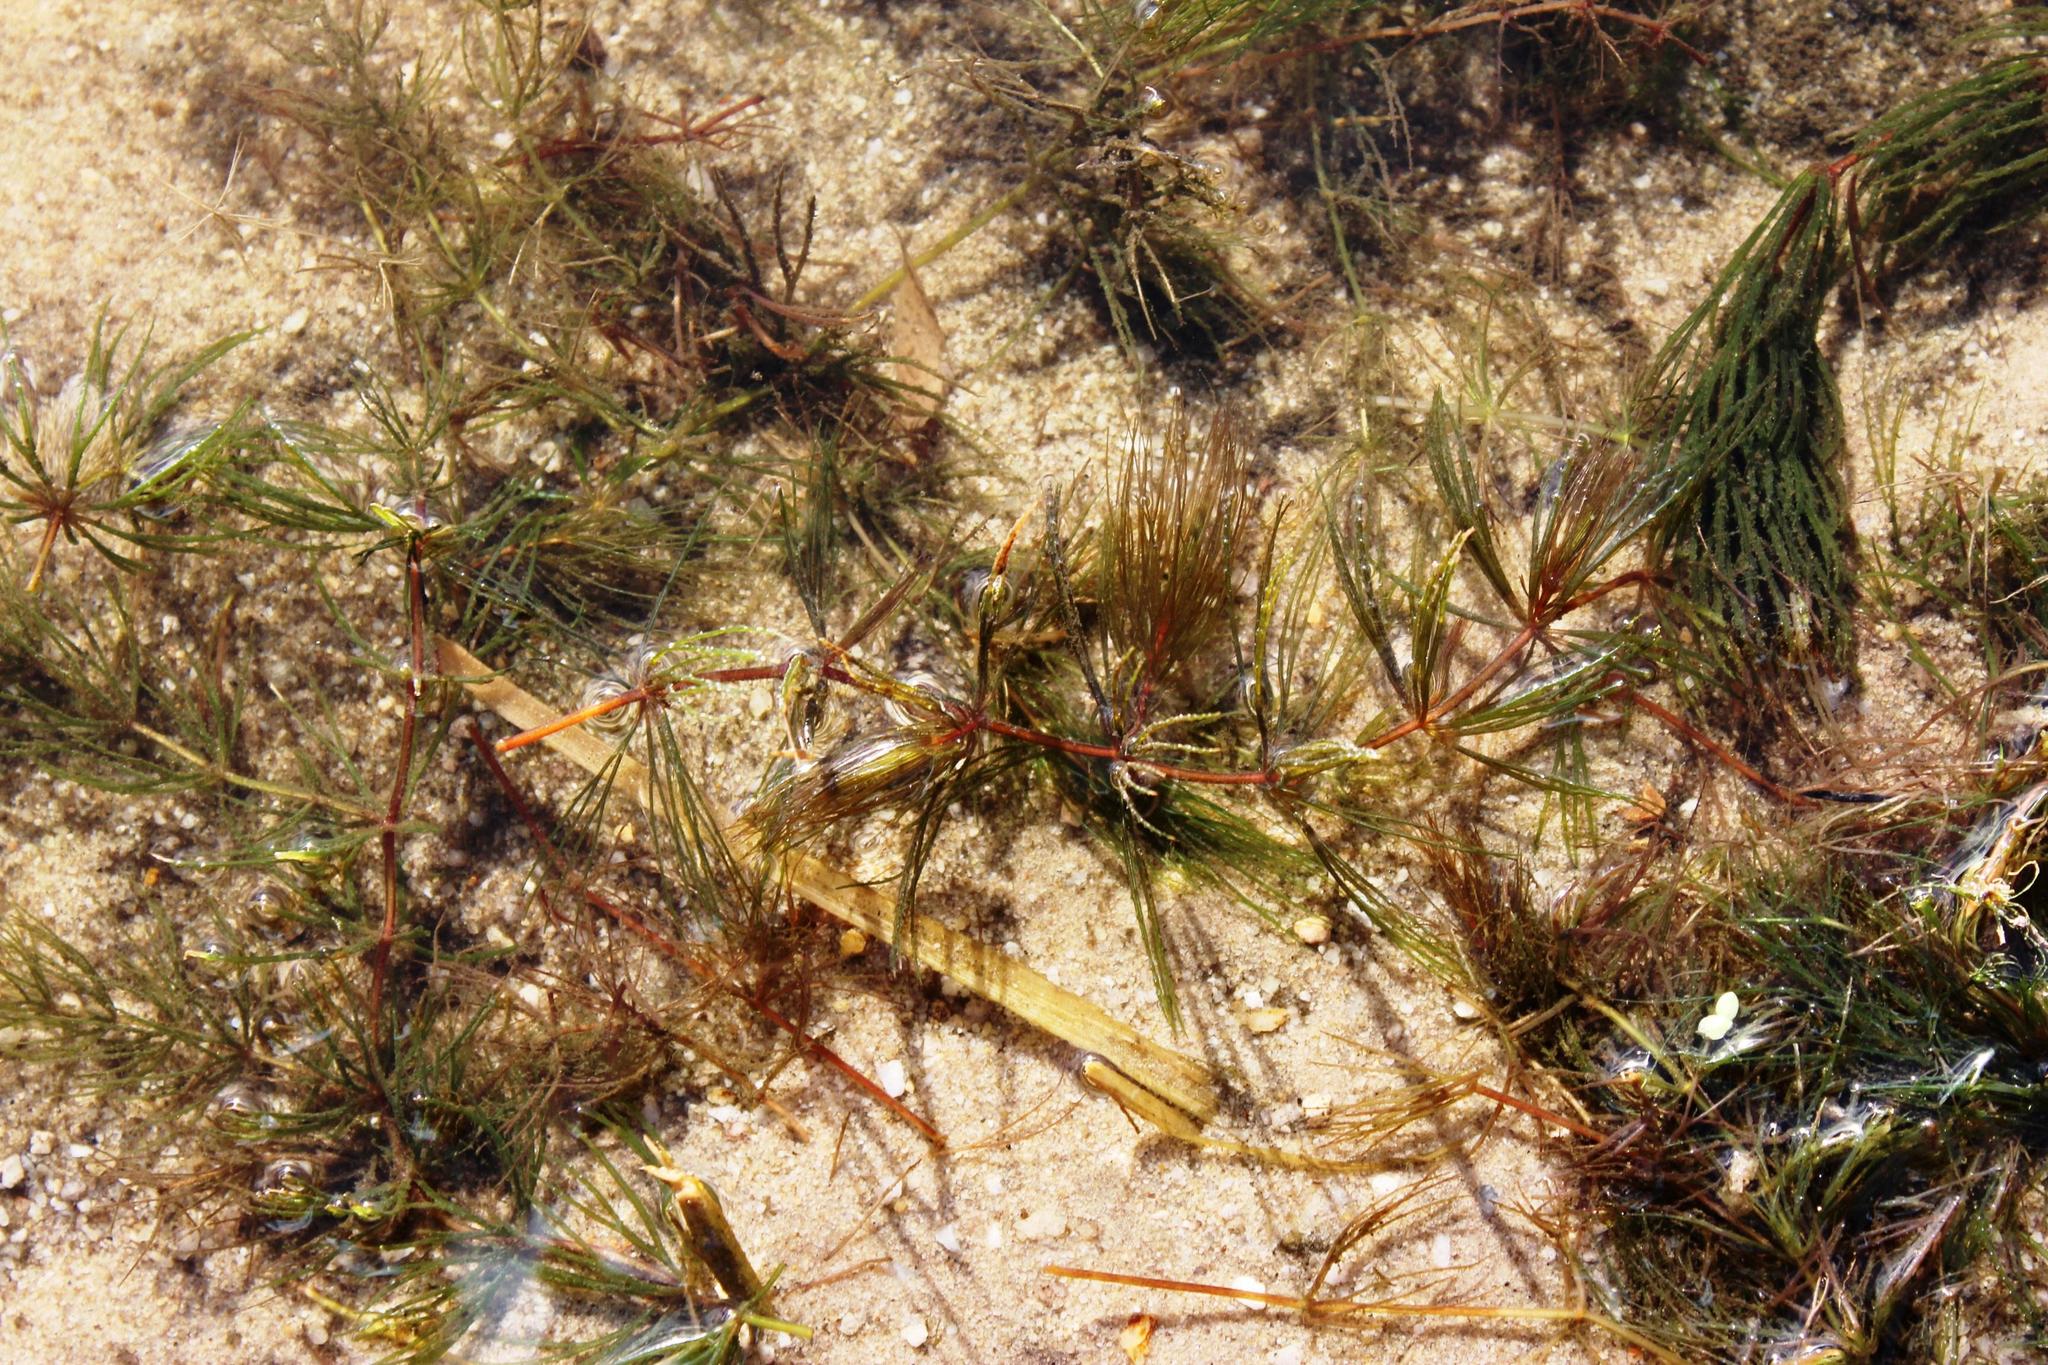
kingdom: Plantae
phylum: Tracheophyta
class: Magnoliopsida
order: Ceratophyllales
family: Ceratophyllaceae
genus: Ceratophyllum
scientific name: Ceratophyllum demersum
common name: Rigid hornwort
